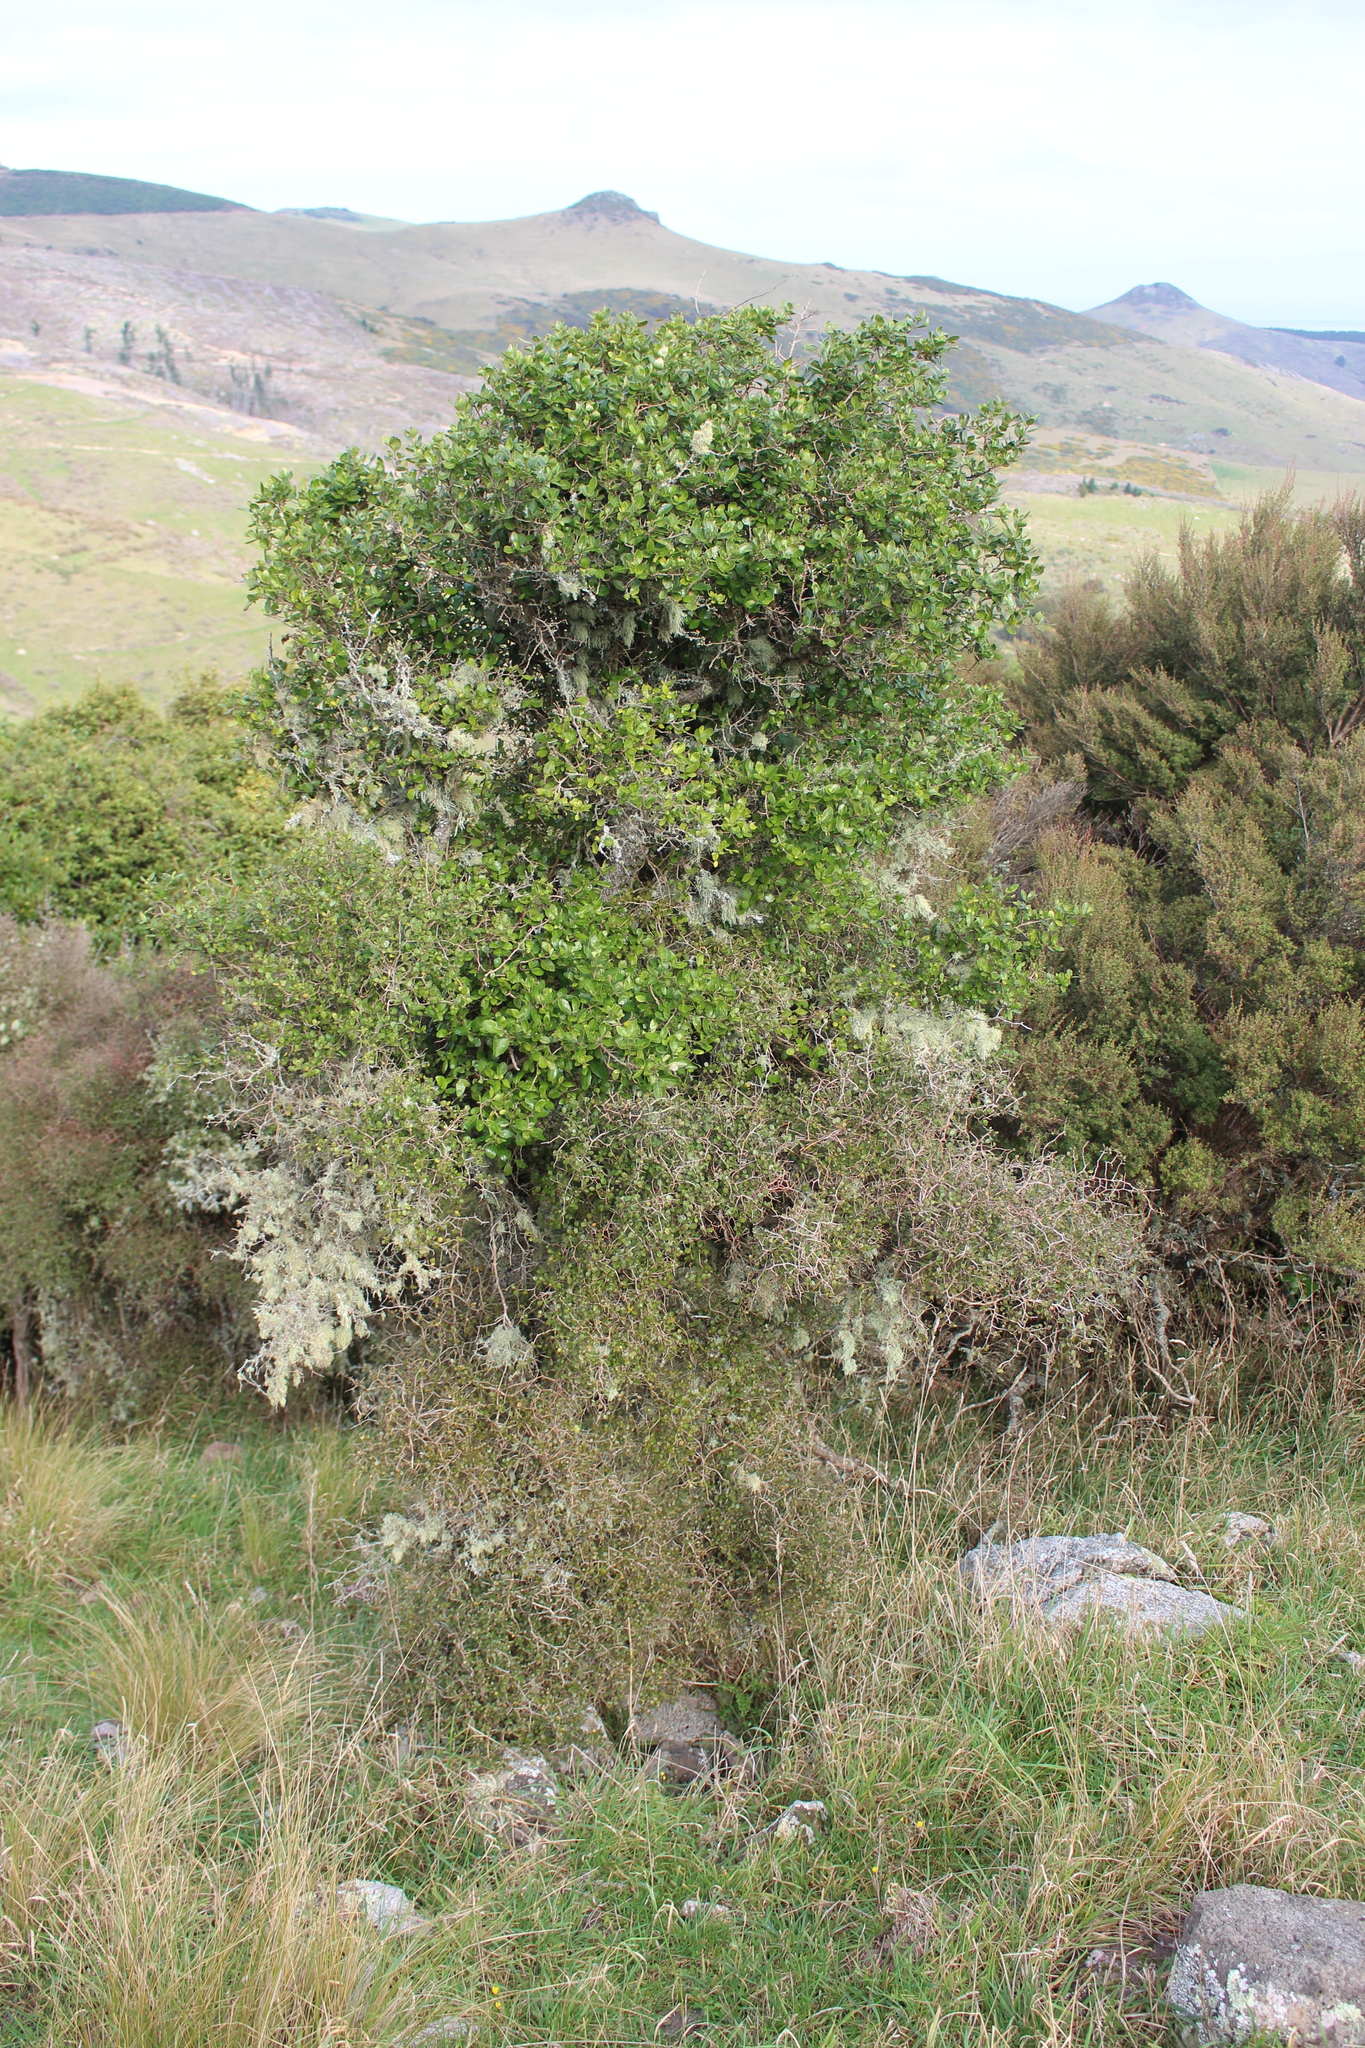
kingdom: Plantae
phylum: Tracheophyta
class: Magnoliopsida
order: Apiales
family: Pennantiaceae
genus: Pennantia
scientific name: Pennantia corymbosa
